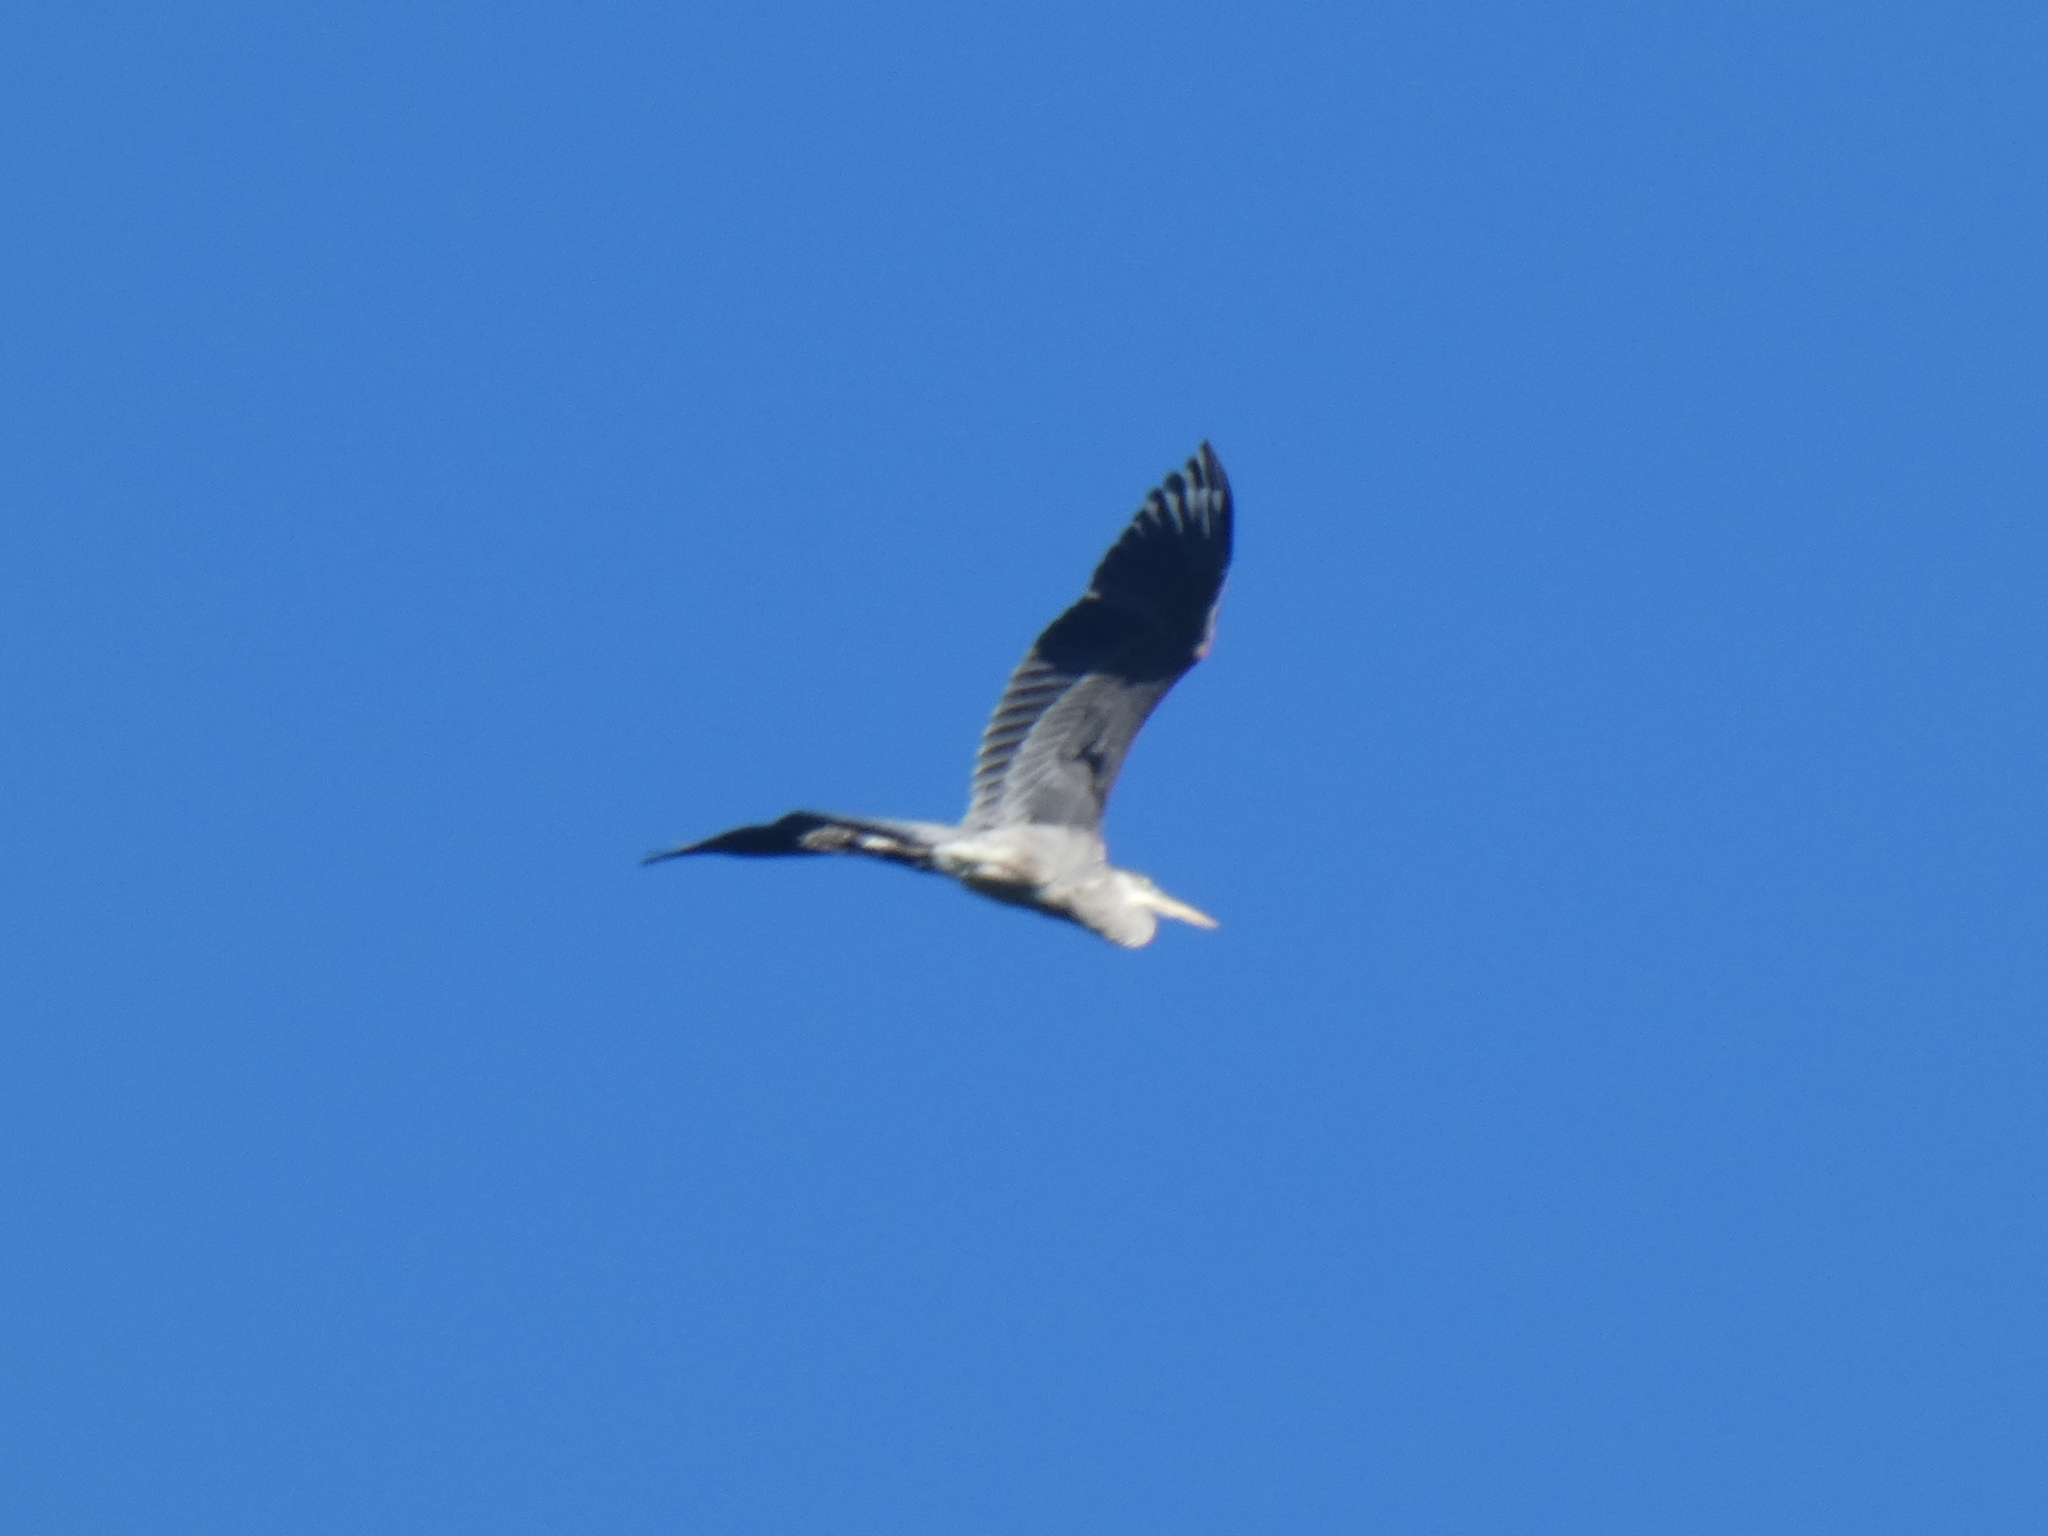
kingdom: Animalia
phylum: Chordata
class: Aves
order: Pelecaniformes
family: Ardeidae
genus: Ardea
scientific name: Ardea herodias
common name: Great blue heron
